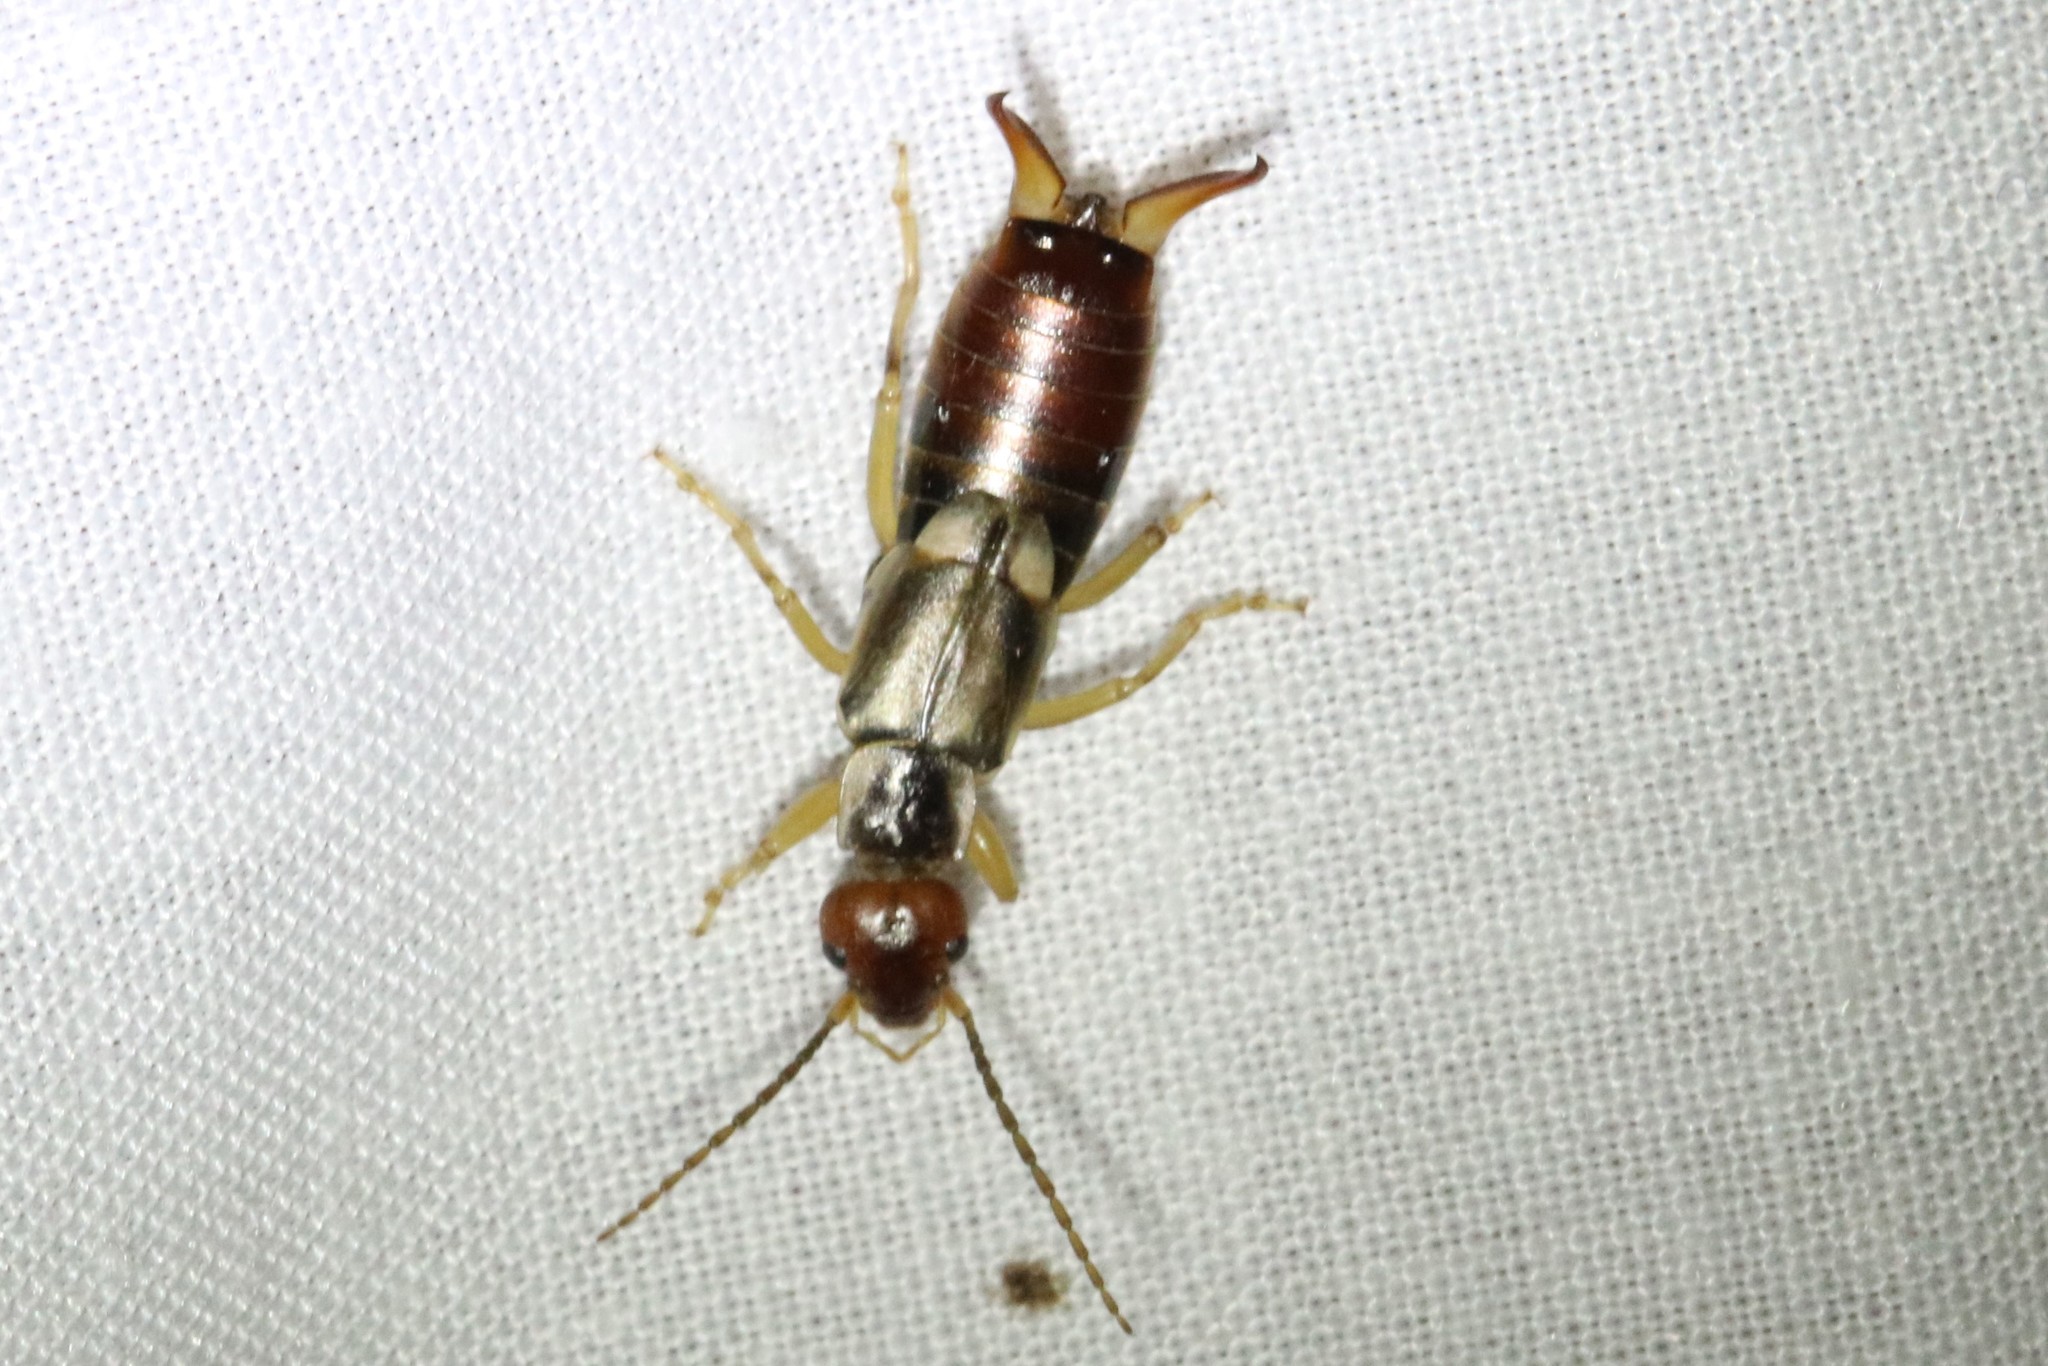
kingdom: Animalia
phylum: Arthropoda
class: Insecta
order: Dermaptera
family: Forficulidae
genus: Forficula
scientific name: Forficula
